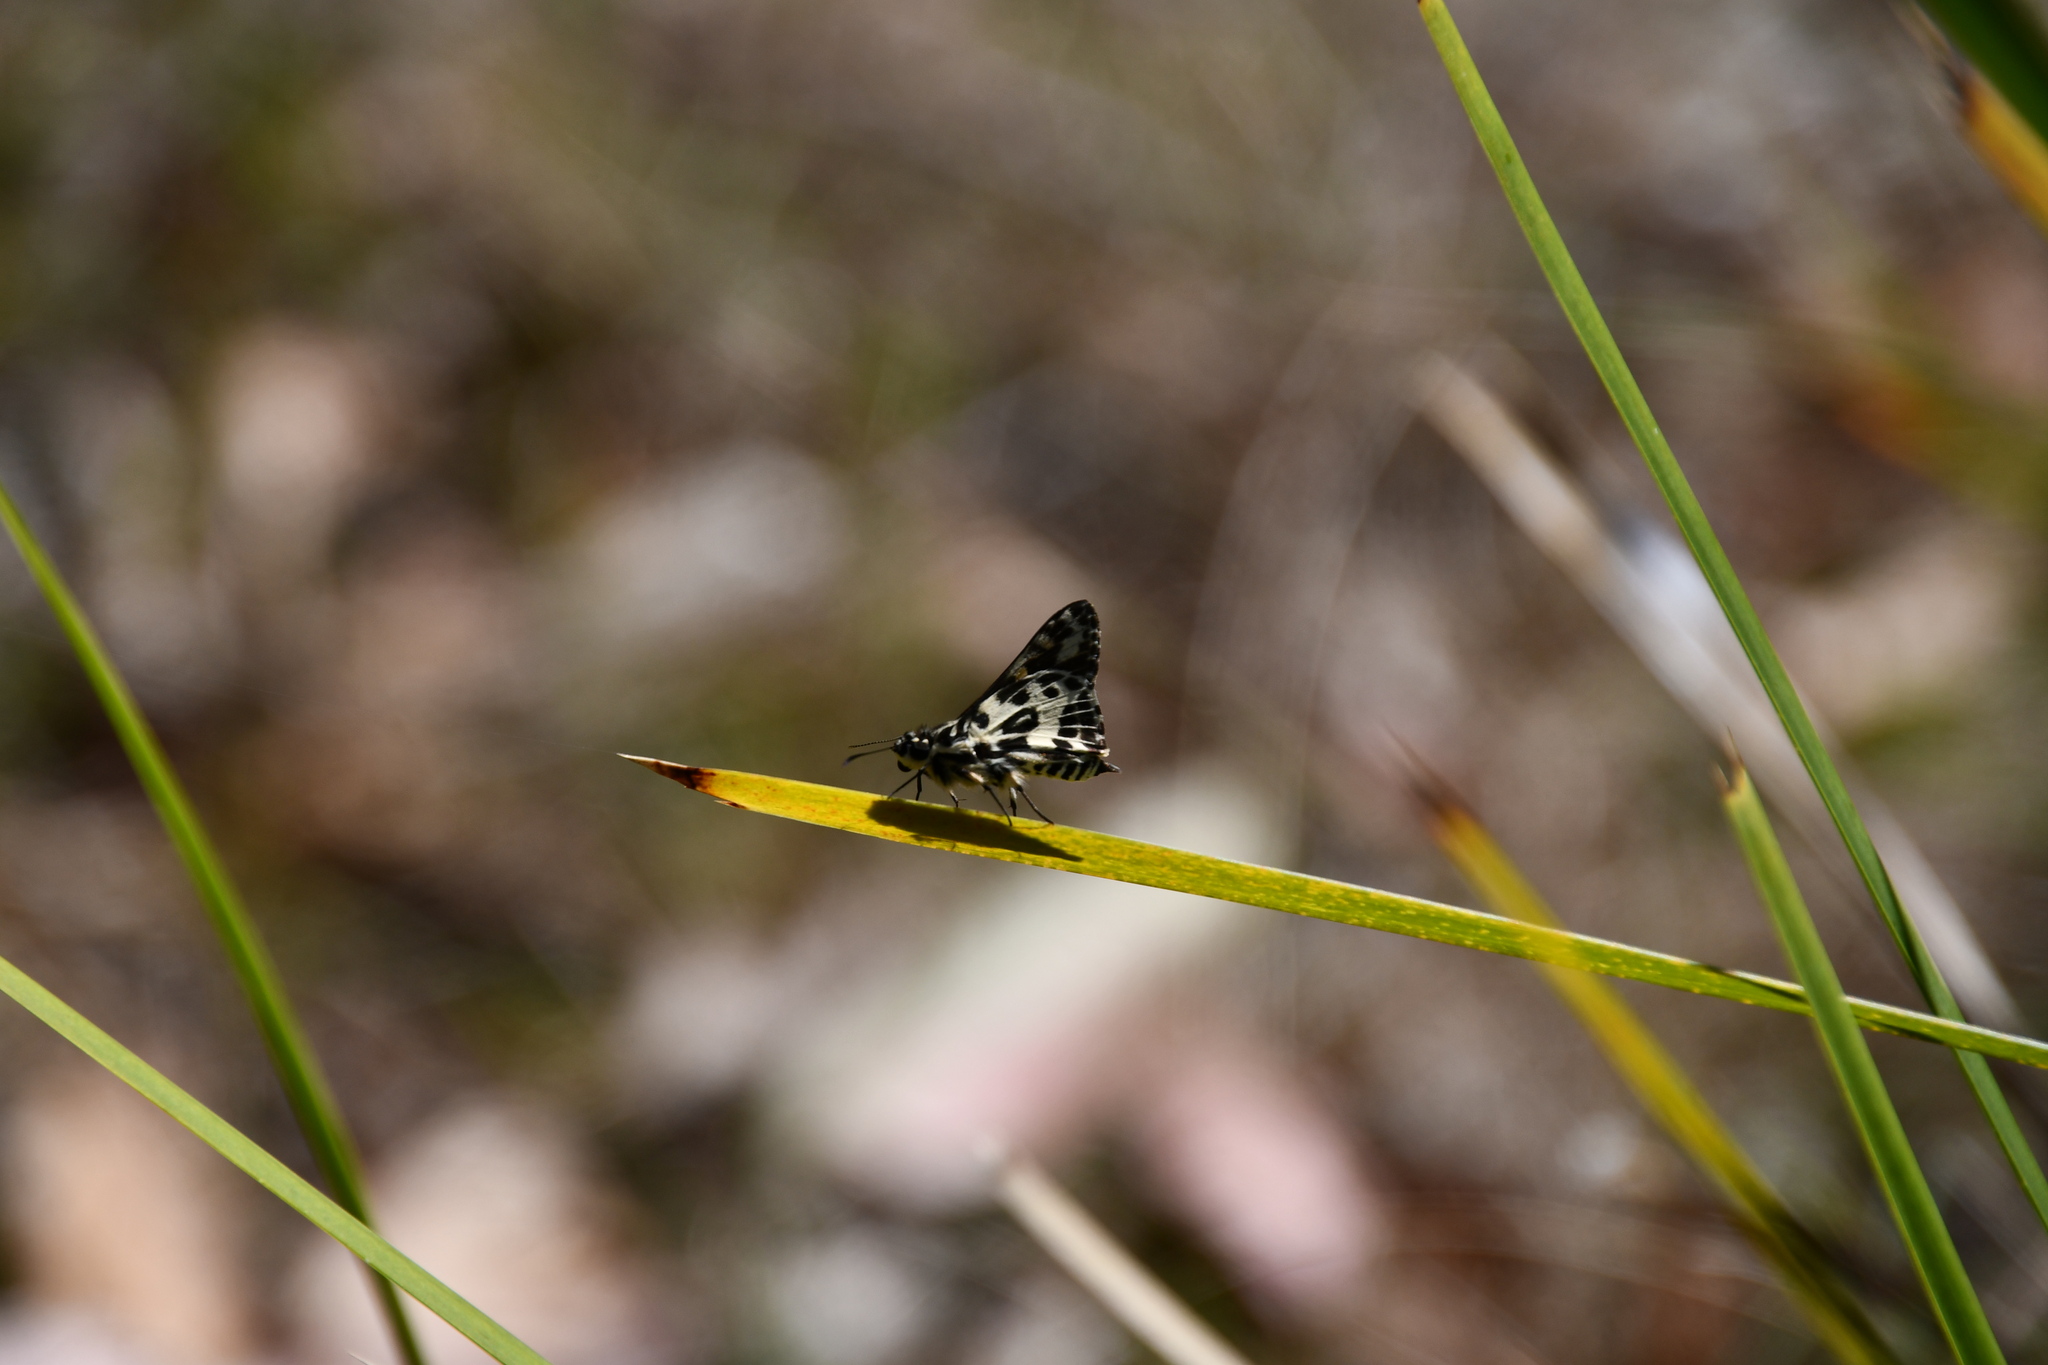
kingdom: Animalia
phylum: Arthropoda
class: Insecta
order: Lepidoptera
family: Hesperiidae
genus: Hesperilla
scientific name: Hesperilla ornata
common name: Spotted sedge-skipper
